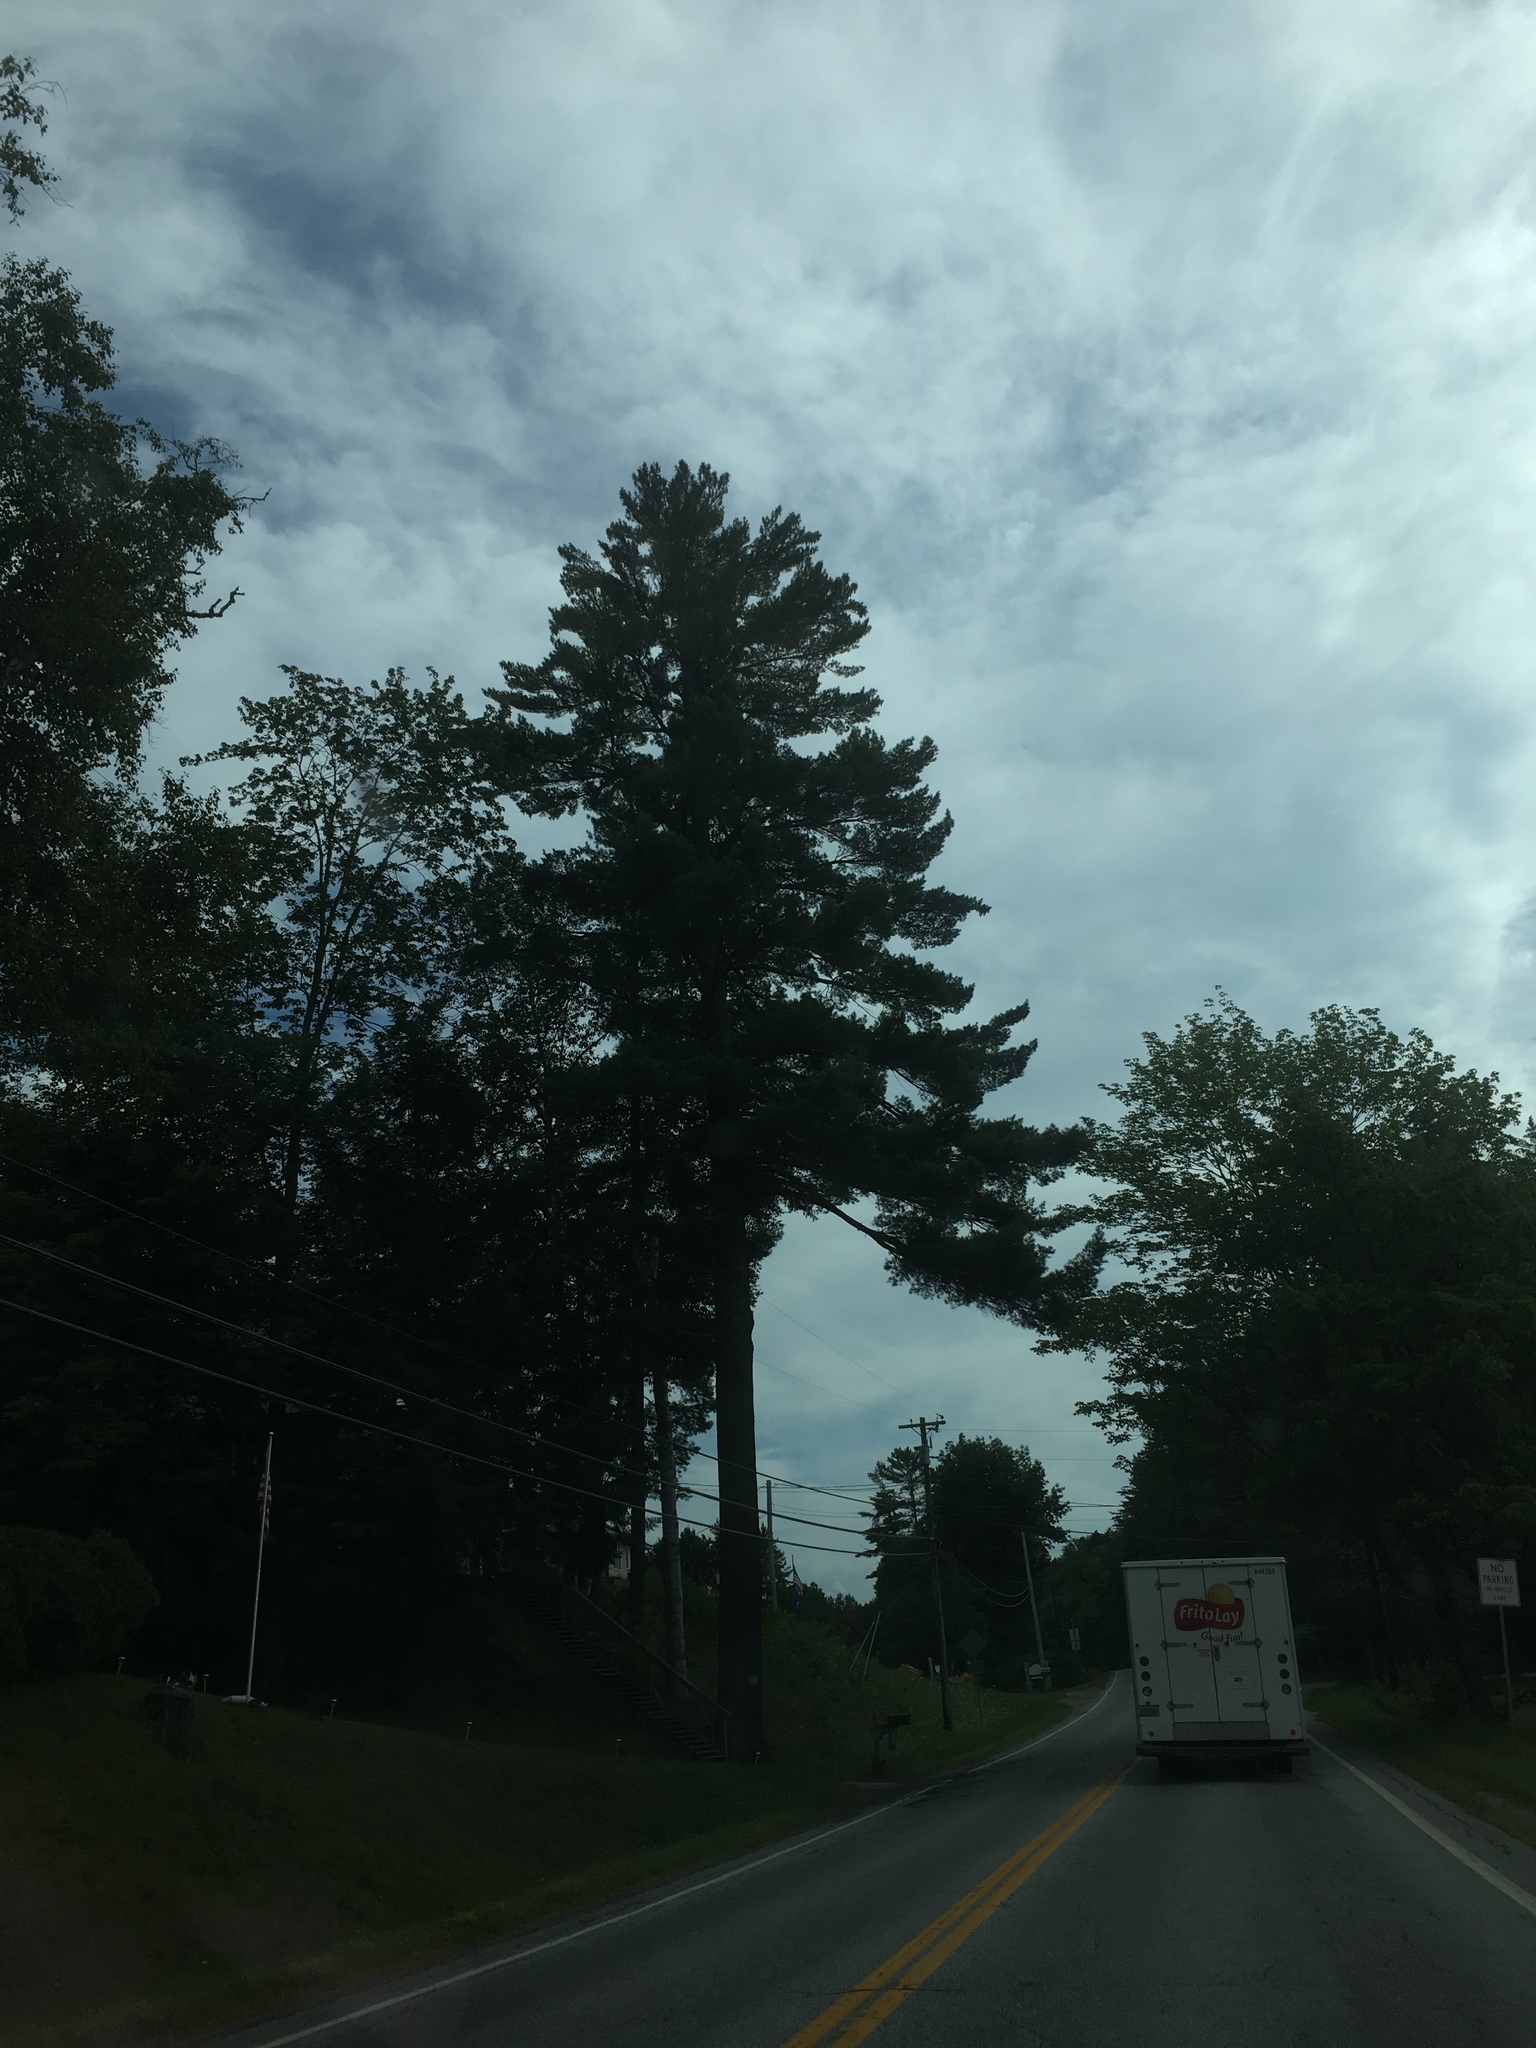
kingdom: Plantae
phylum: Tracheophyta
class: Pinopsida
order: Pinales
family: Pinaceae
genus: Pinus
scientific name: Pinus strobus
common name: Weymouth pine
